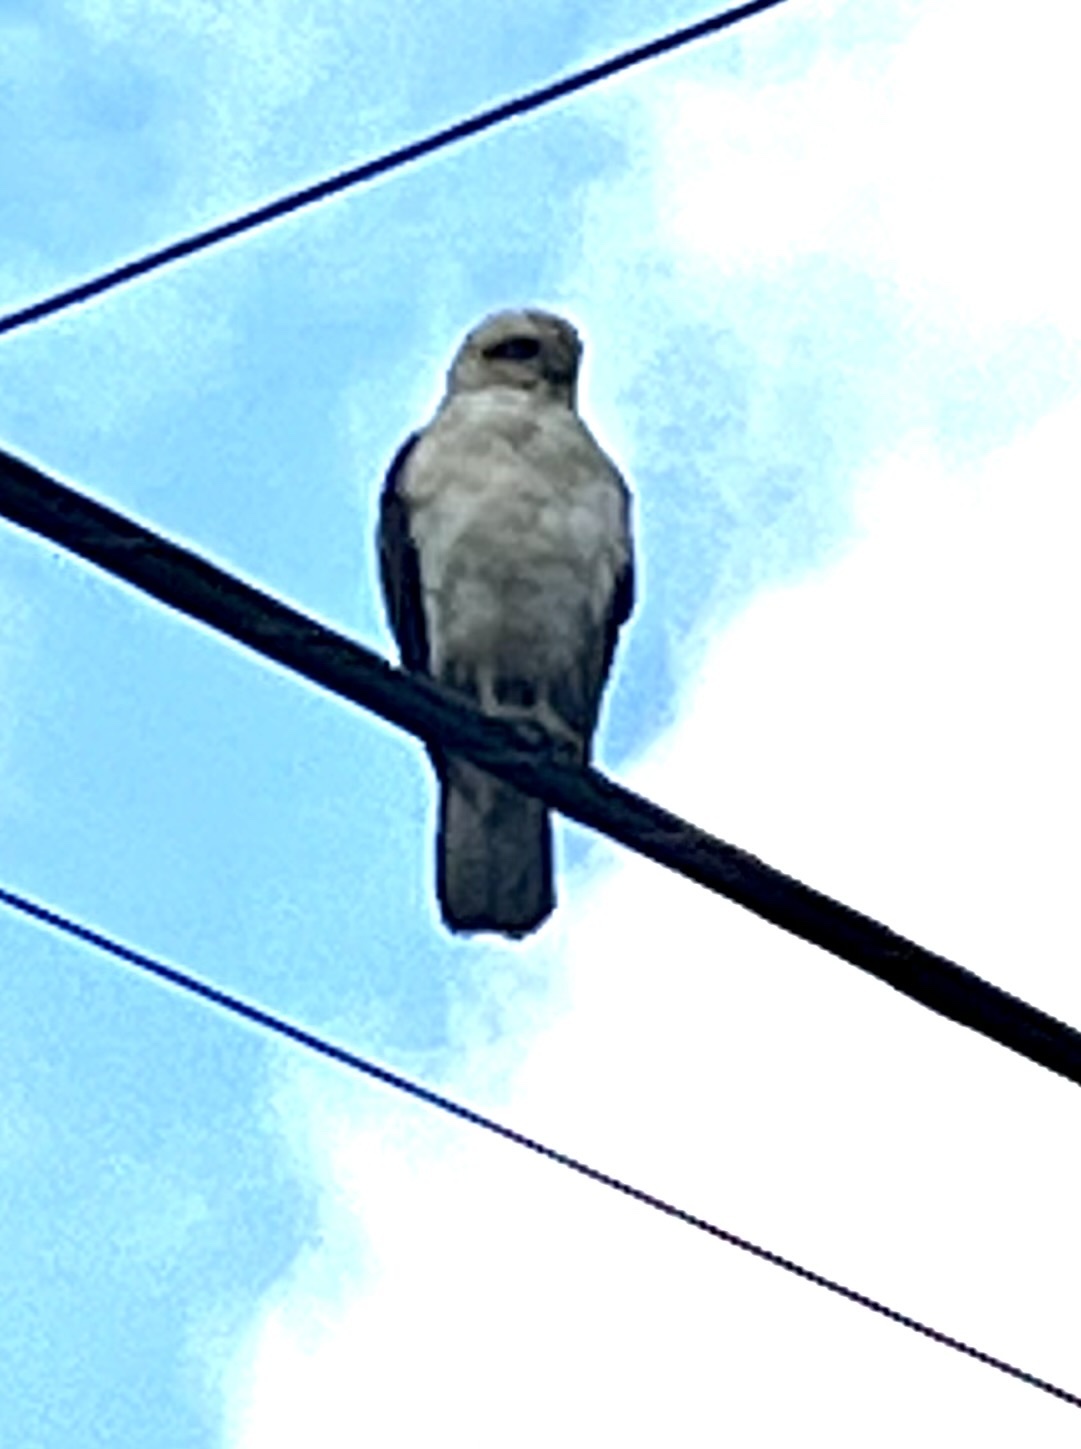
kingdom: Animalia
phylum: Chordata
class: Aves
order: Accipitriformes
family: Accipitridae
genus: Buteo
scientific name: Buteo solitarius
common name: Hawaiian hawk
